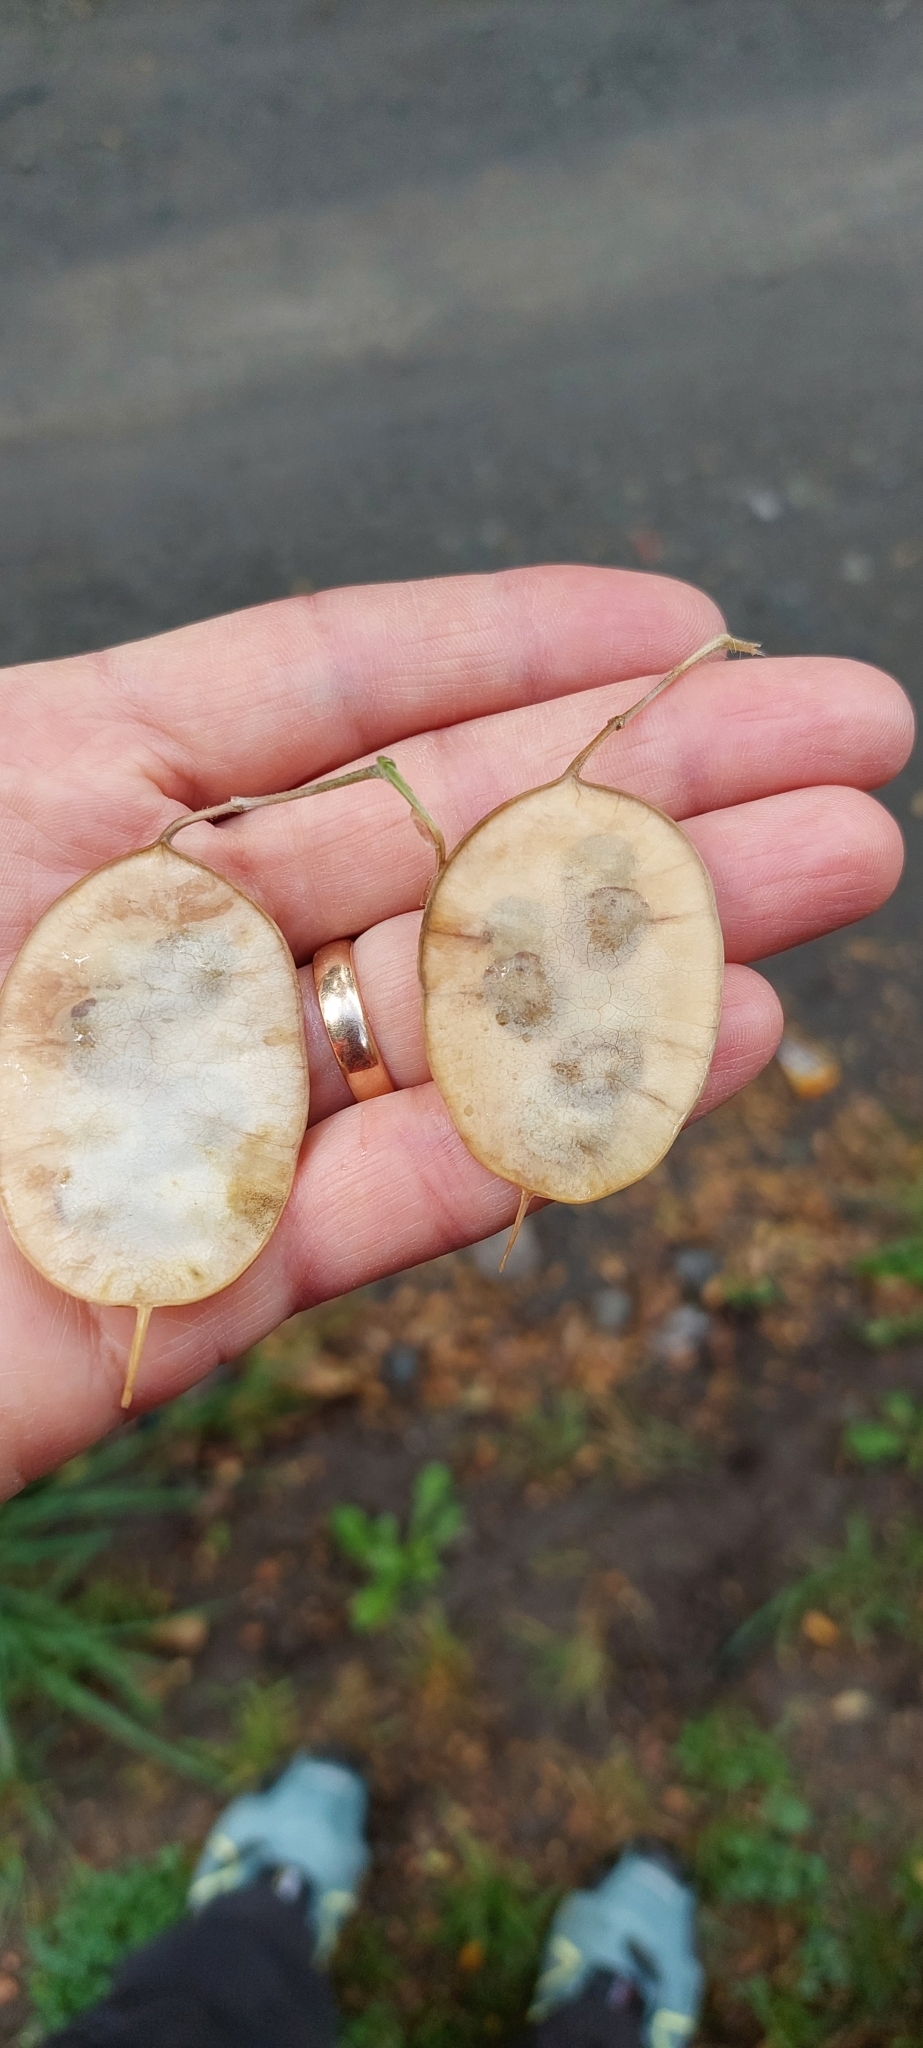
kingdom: Plantae
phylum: Tracheophyta
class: Magnoliopsida
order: Brassicales
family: Brassicaceae
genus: Lunaria
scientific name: Lunaria annua
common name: Honesty
